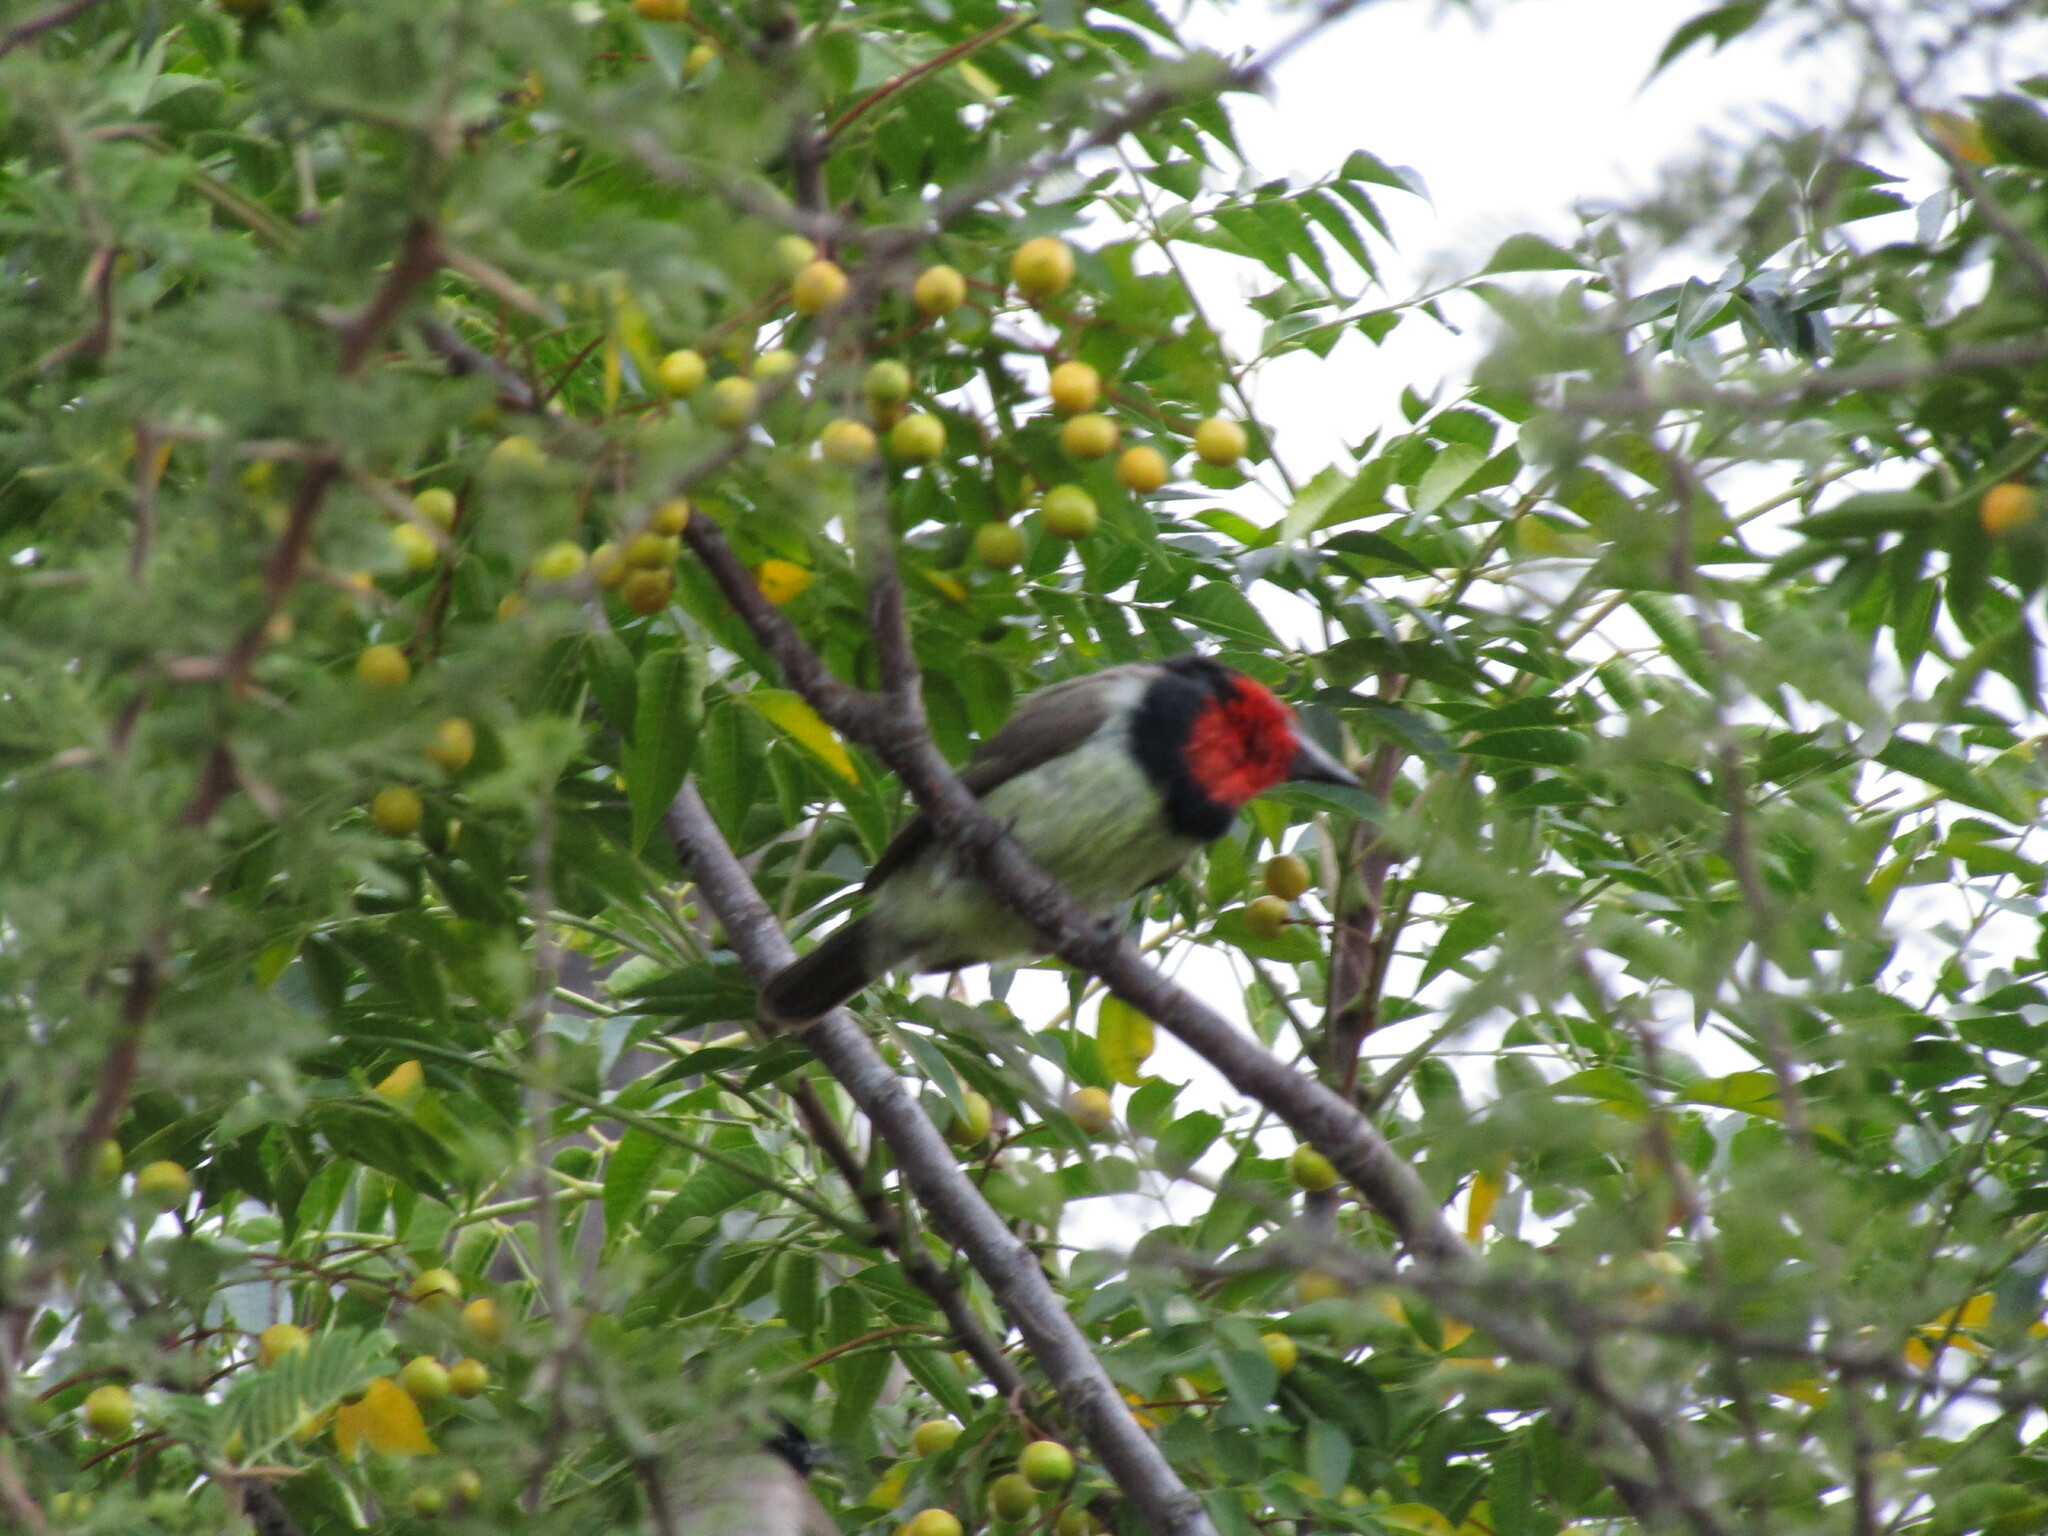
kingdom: Animalia
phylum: Chordata
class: Aves
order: Piciformes
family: Lybiidae
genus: Lybius
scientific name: Lybius torquatus
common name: Black-collared barbet
